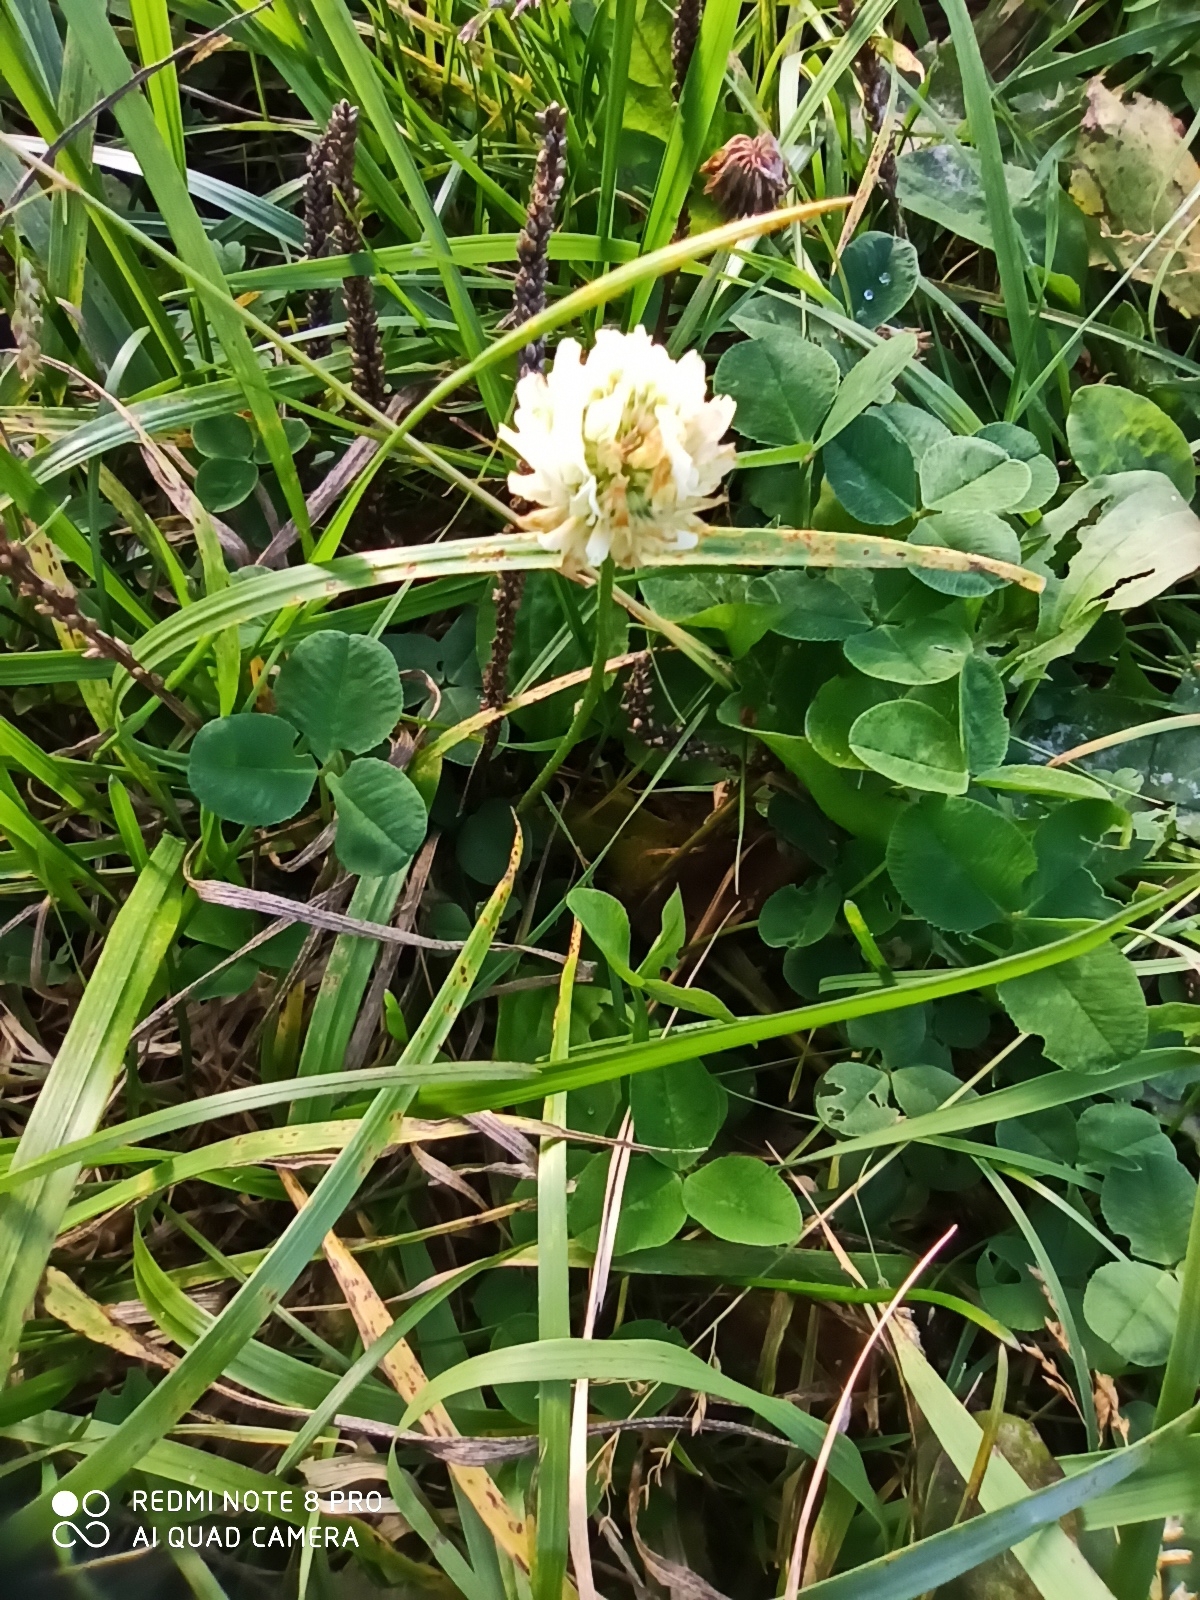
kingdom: Plantae
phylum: Tracheophyta
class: Magnoliopsida
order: Fabales
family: Fabaceae
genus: Trifolium
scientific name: Trifolium repens
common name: White clover
